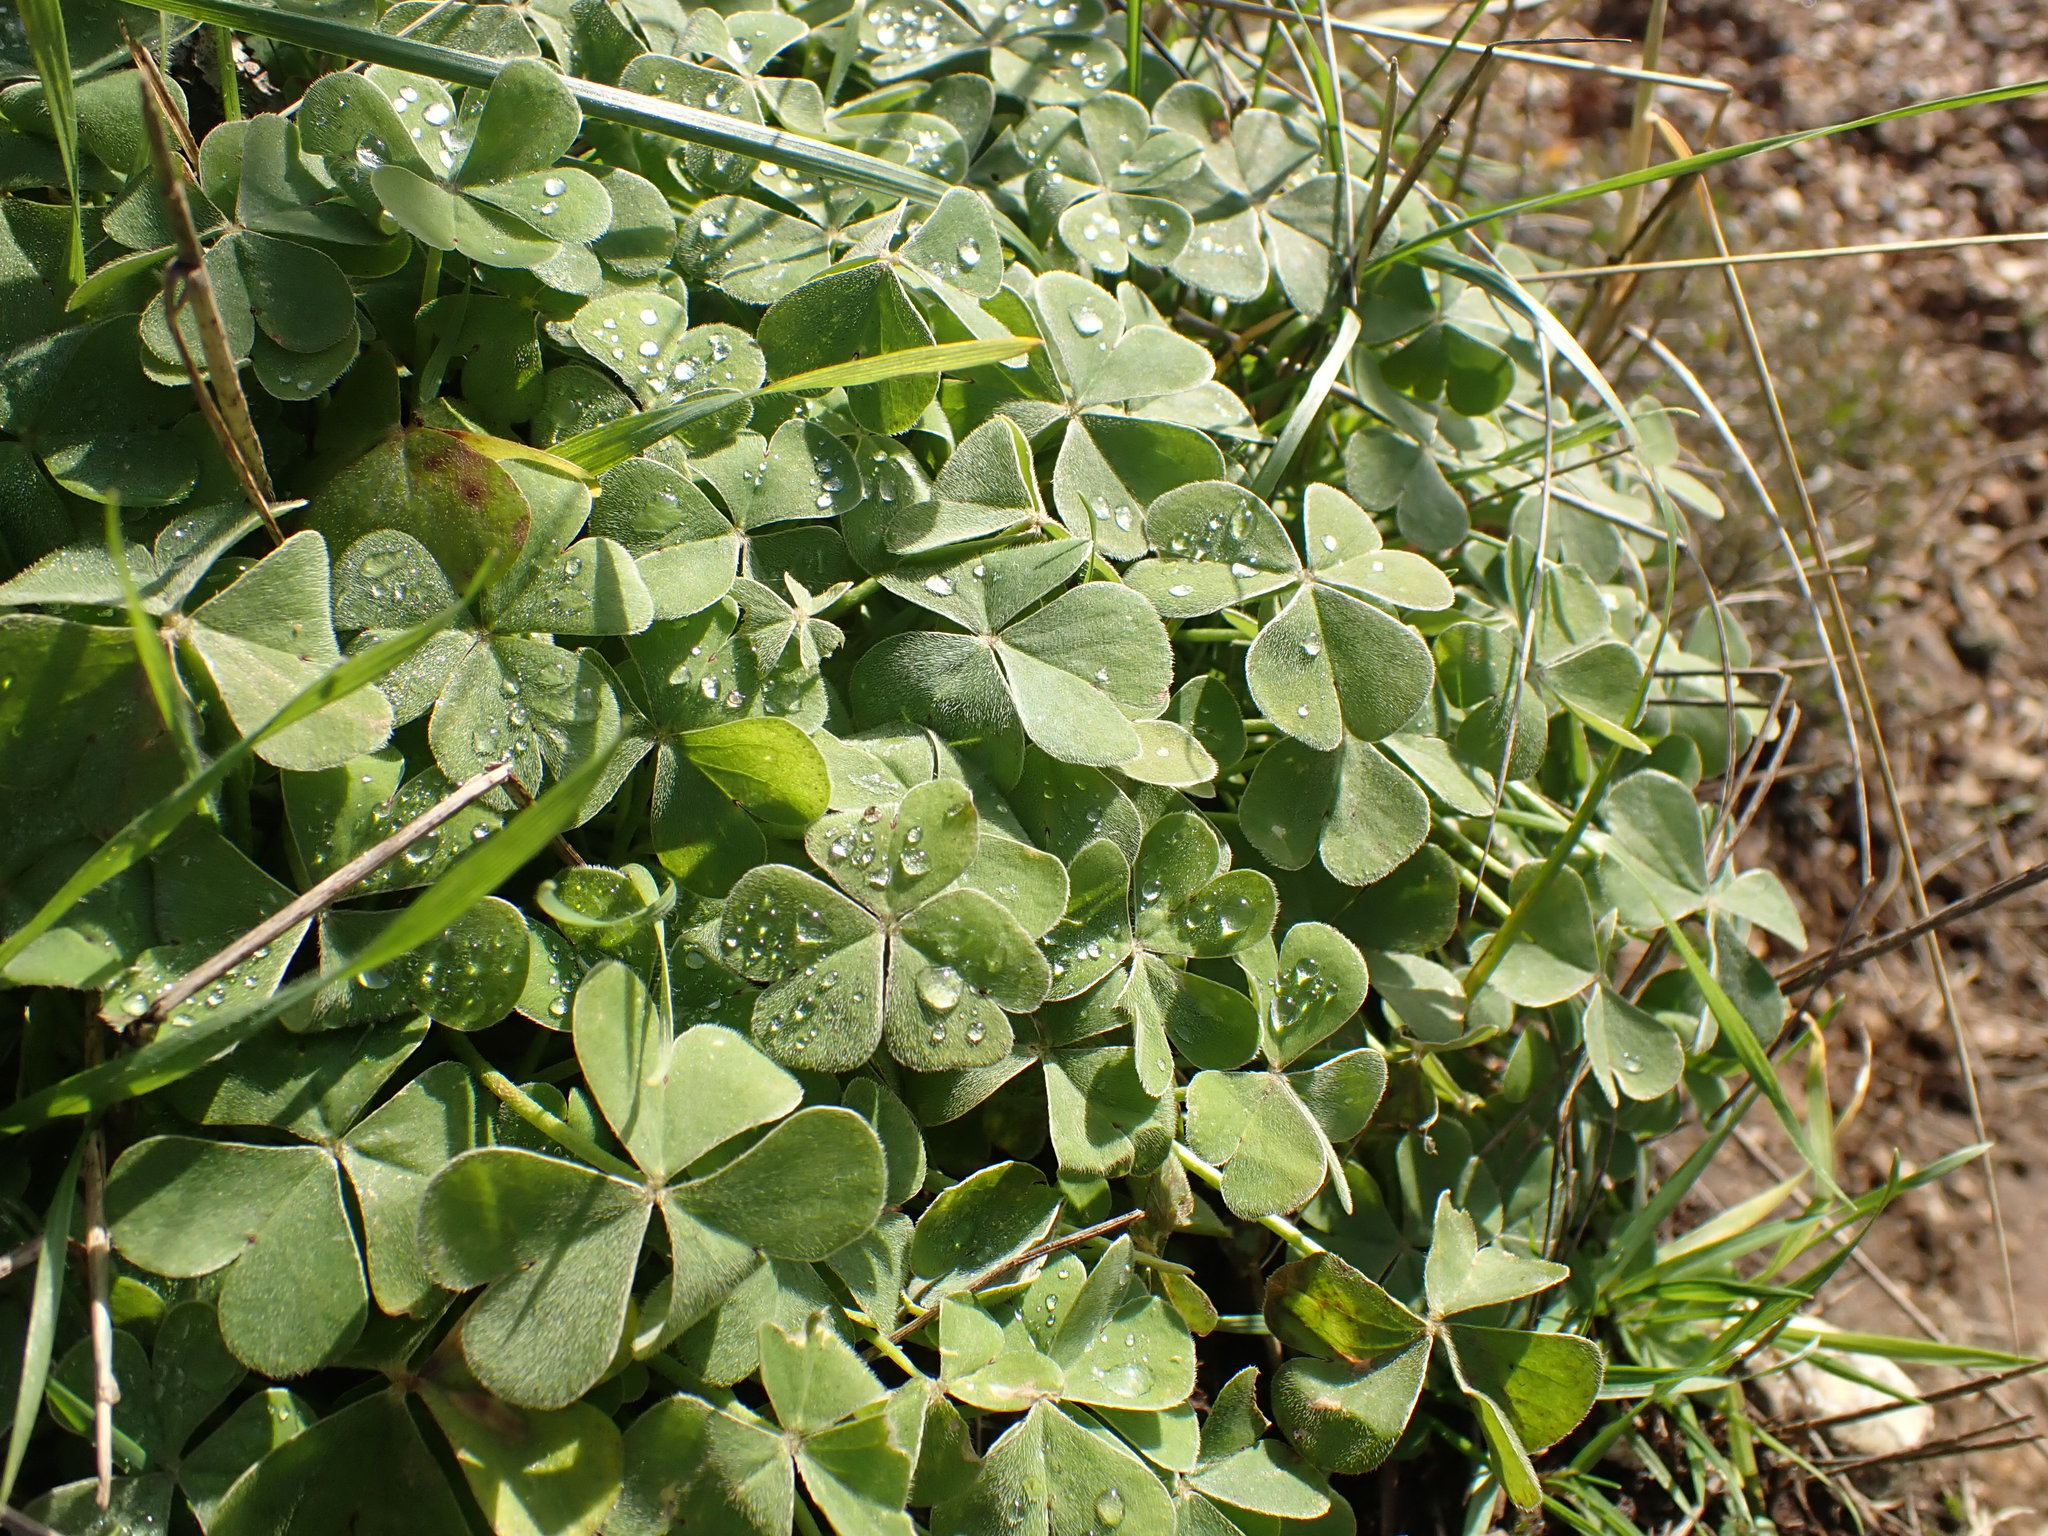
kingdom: Plantae
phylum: Tracheophyta
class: Magnoliopsida
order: Oxalidales
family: Oxalidaceae
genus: Oxalis
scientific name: Oxalis articulata
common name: Pink-sorrel
